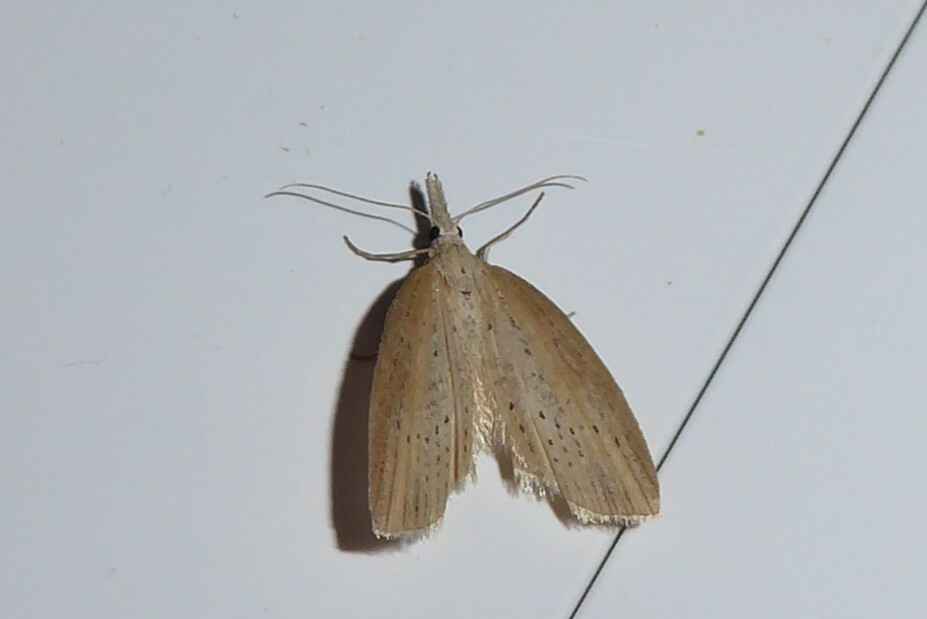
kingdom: Animalia
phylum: Arthropoda
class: Insecta
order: Lepidoptera
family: Geometridae
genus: Microdes
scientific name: Microdes epicryptis
